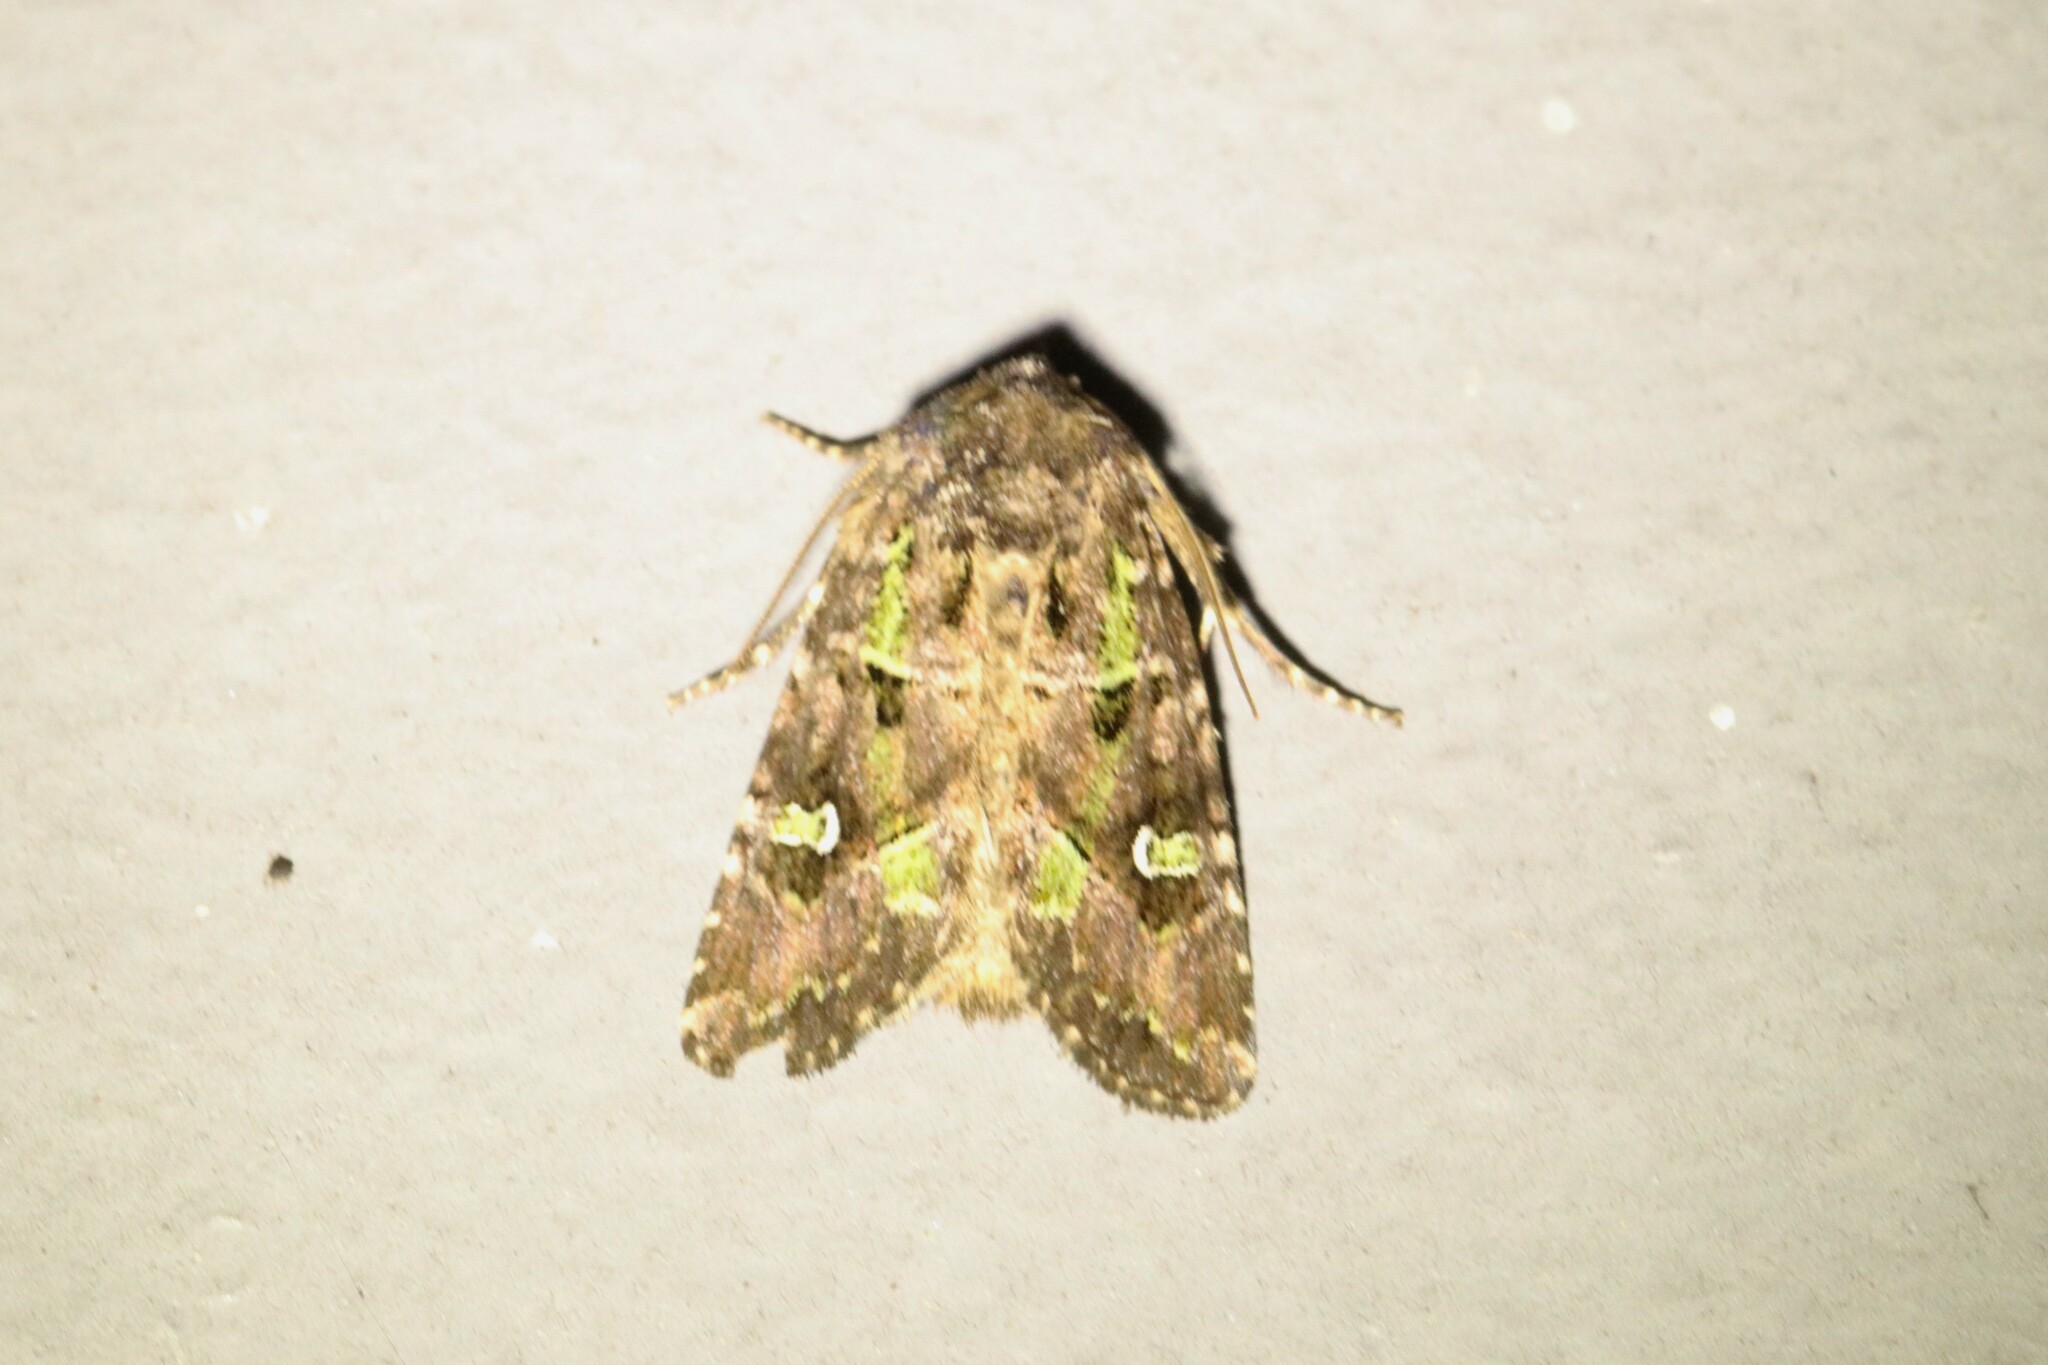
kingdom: Animalia
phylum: Arthropoda
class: Insecta
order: Lepidoptera
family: Noctuidae
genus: Lacinipolia
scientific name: Lacinipolia renigera
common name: Kidney-spotted minor
